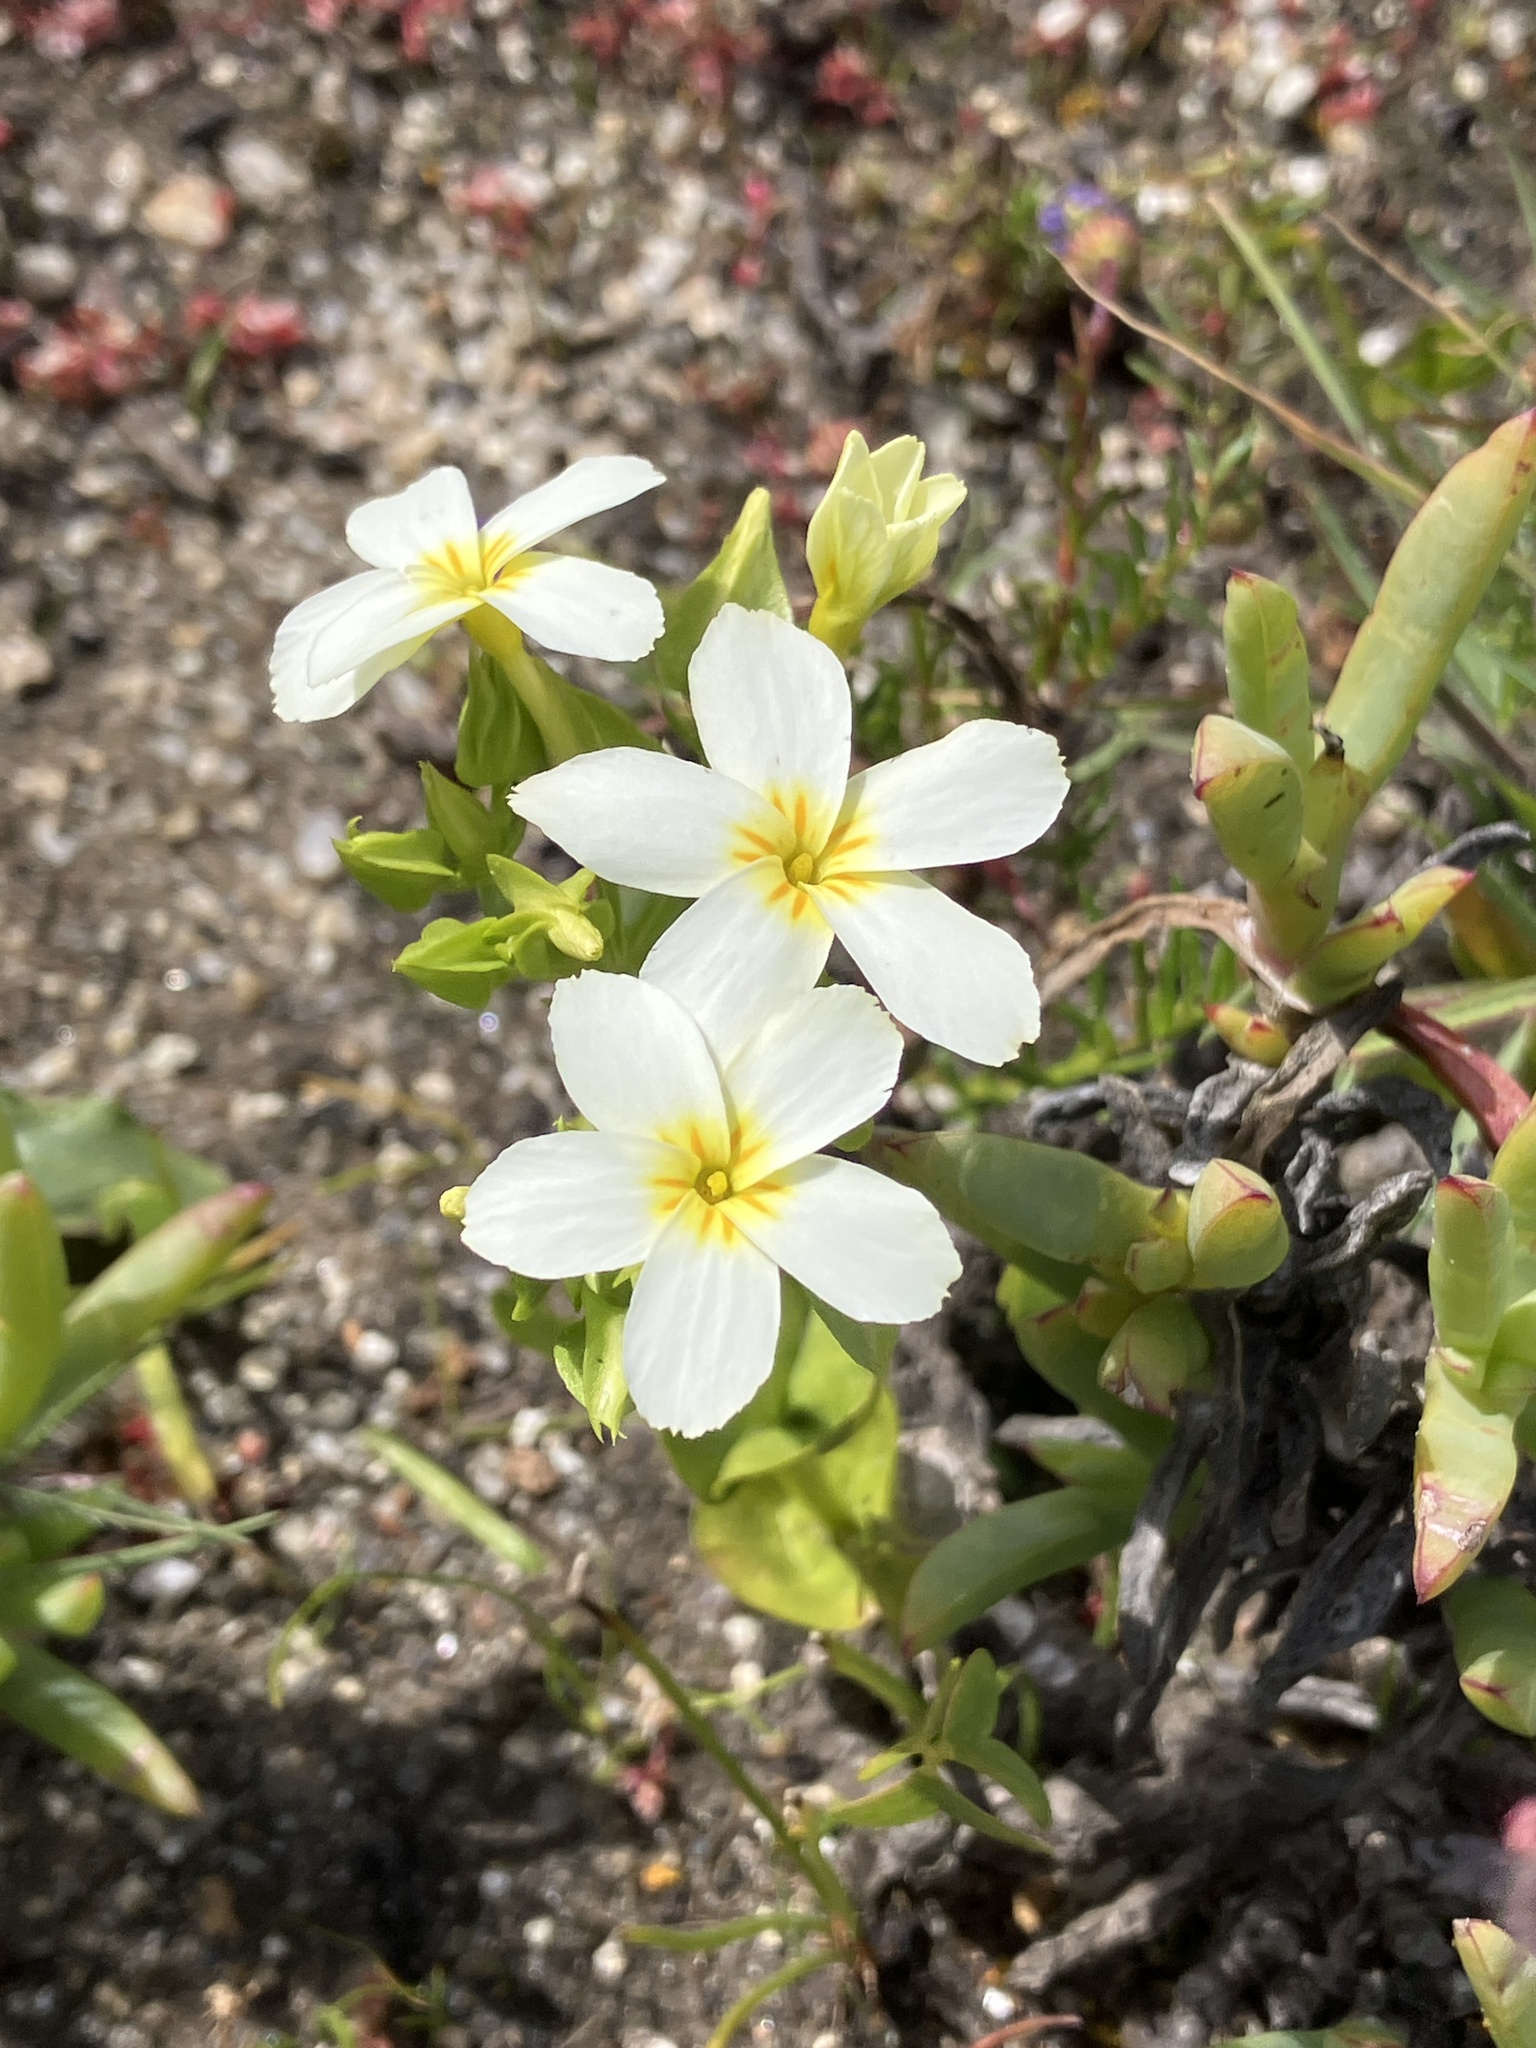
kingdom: Plantae
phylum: Tracheophyta
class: Magnoliopsida
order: Gentianales
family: Gentianaceae
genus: Sebaea
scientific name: Sebaea exacoides
